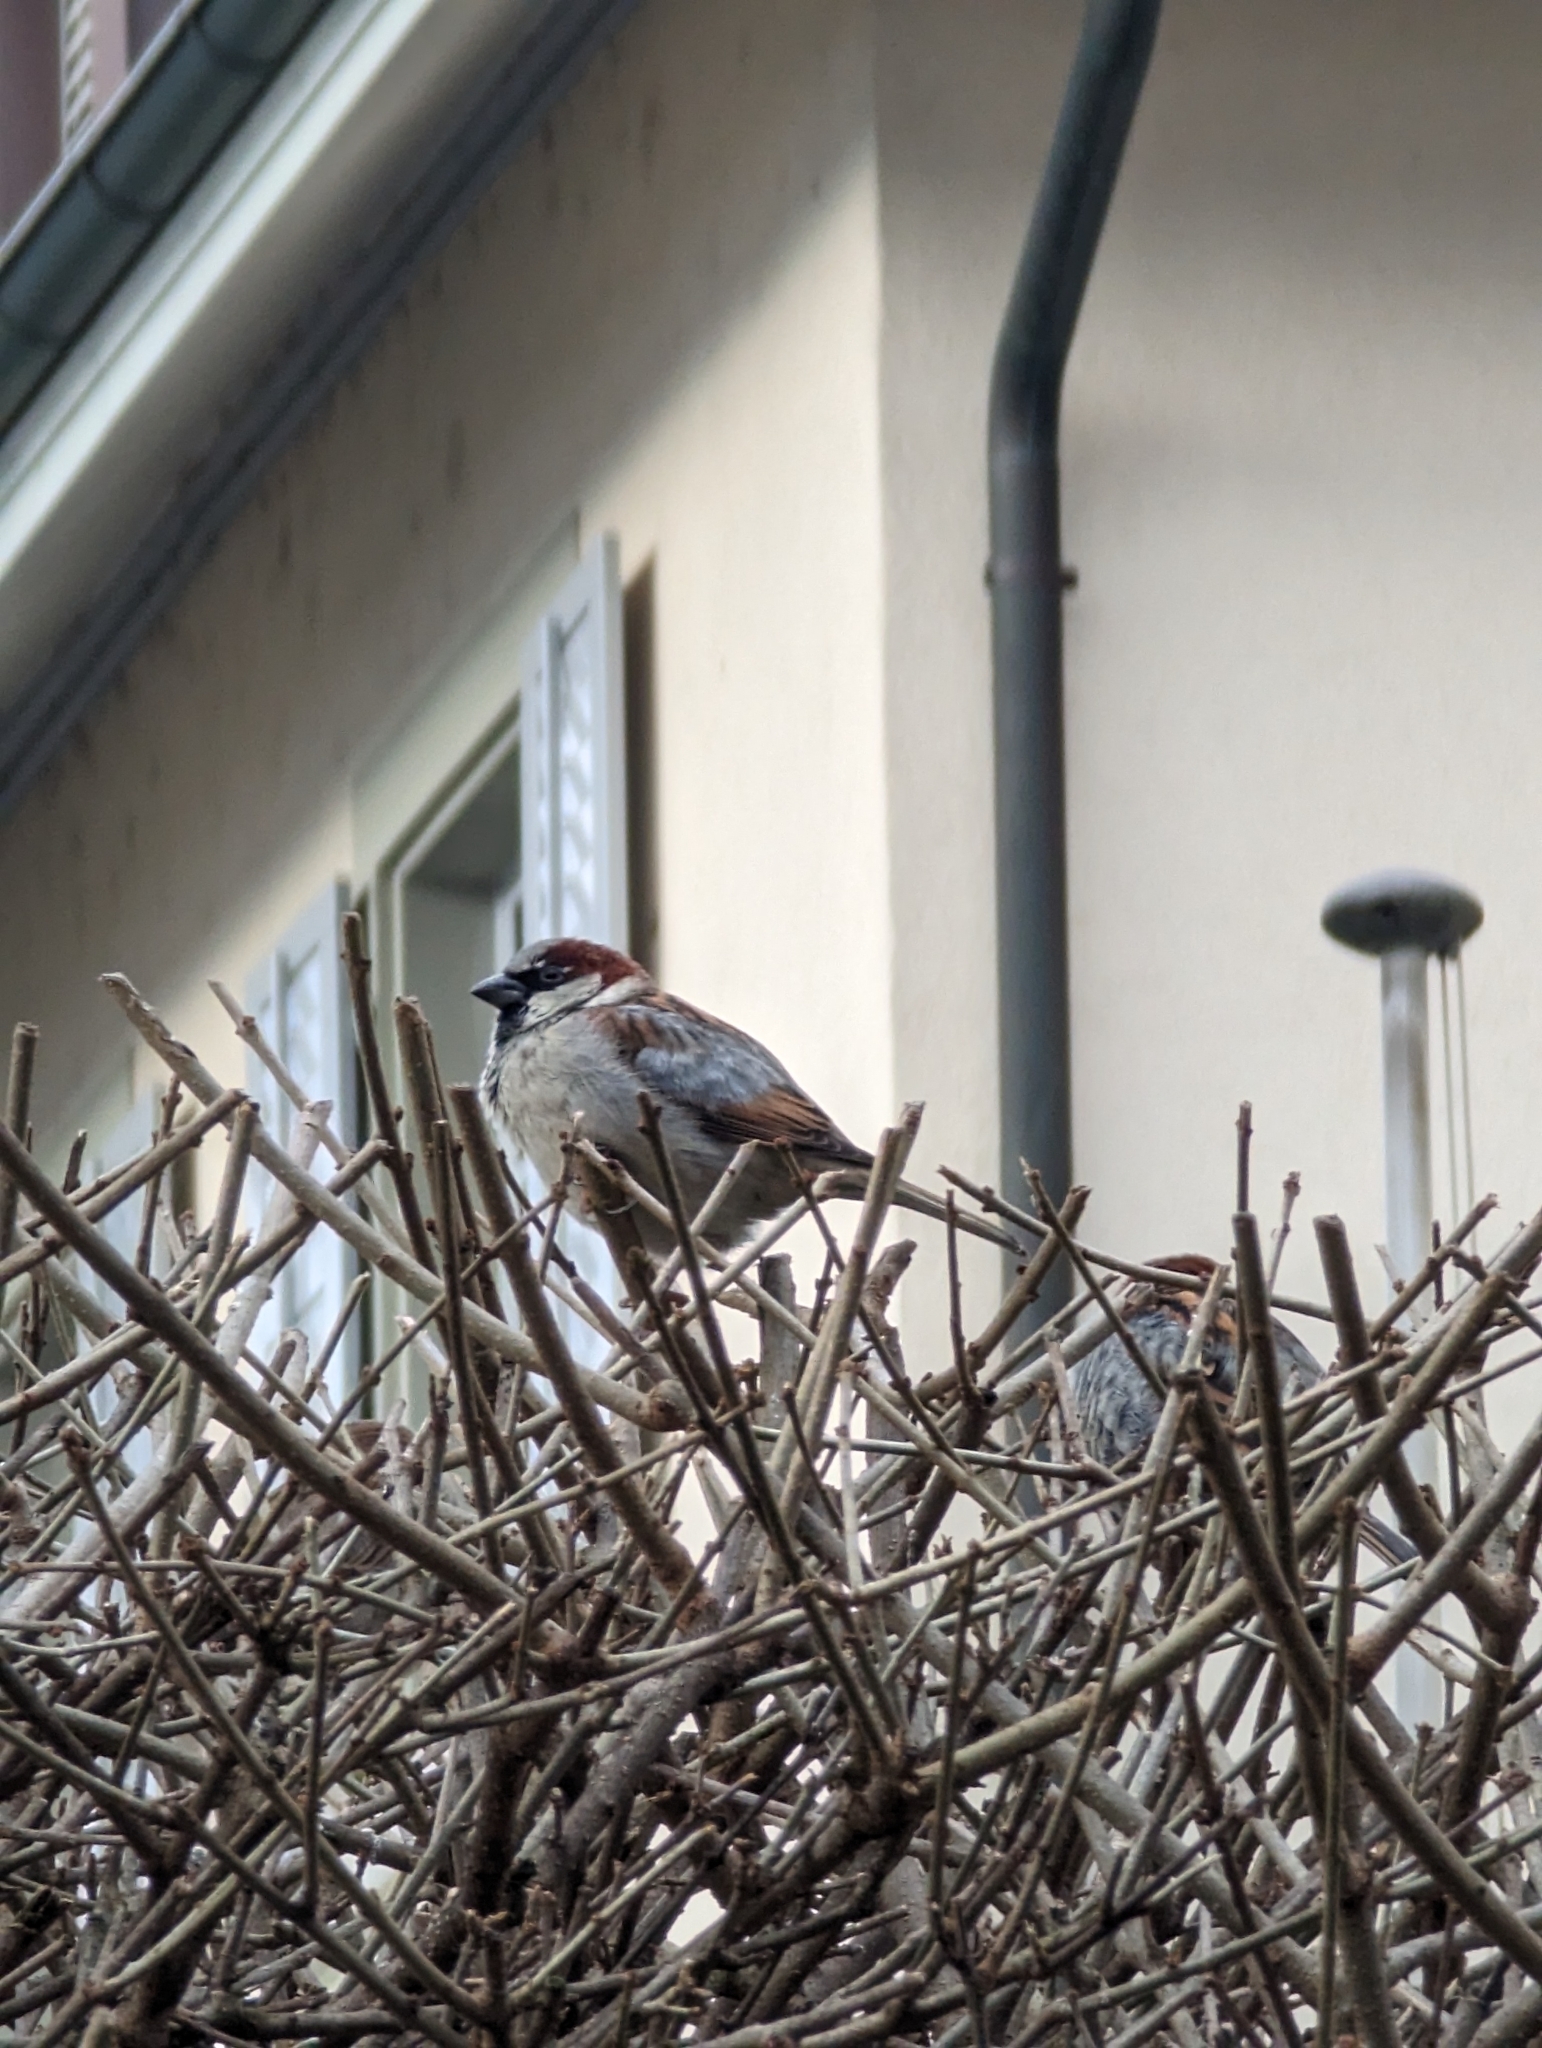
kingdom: Animalia
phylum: Chordata
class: Aves
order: Passeriformes
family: Passeridae
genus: Passer
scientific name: Passer domesticus
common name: House sparrow
